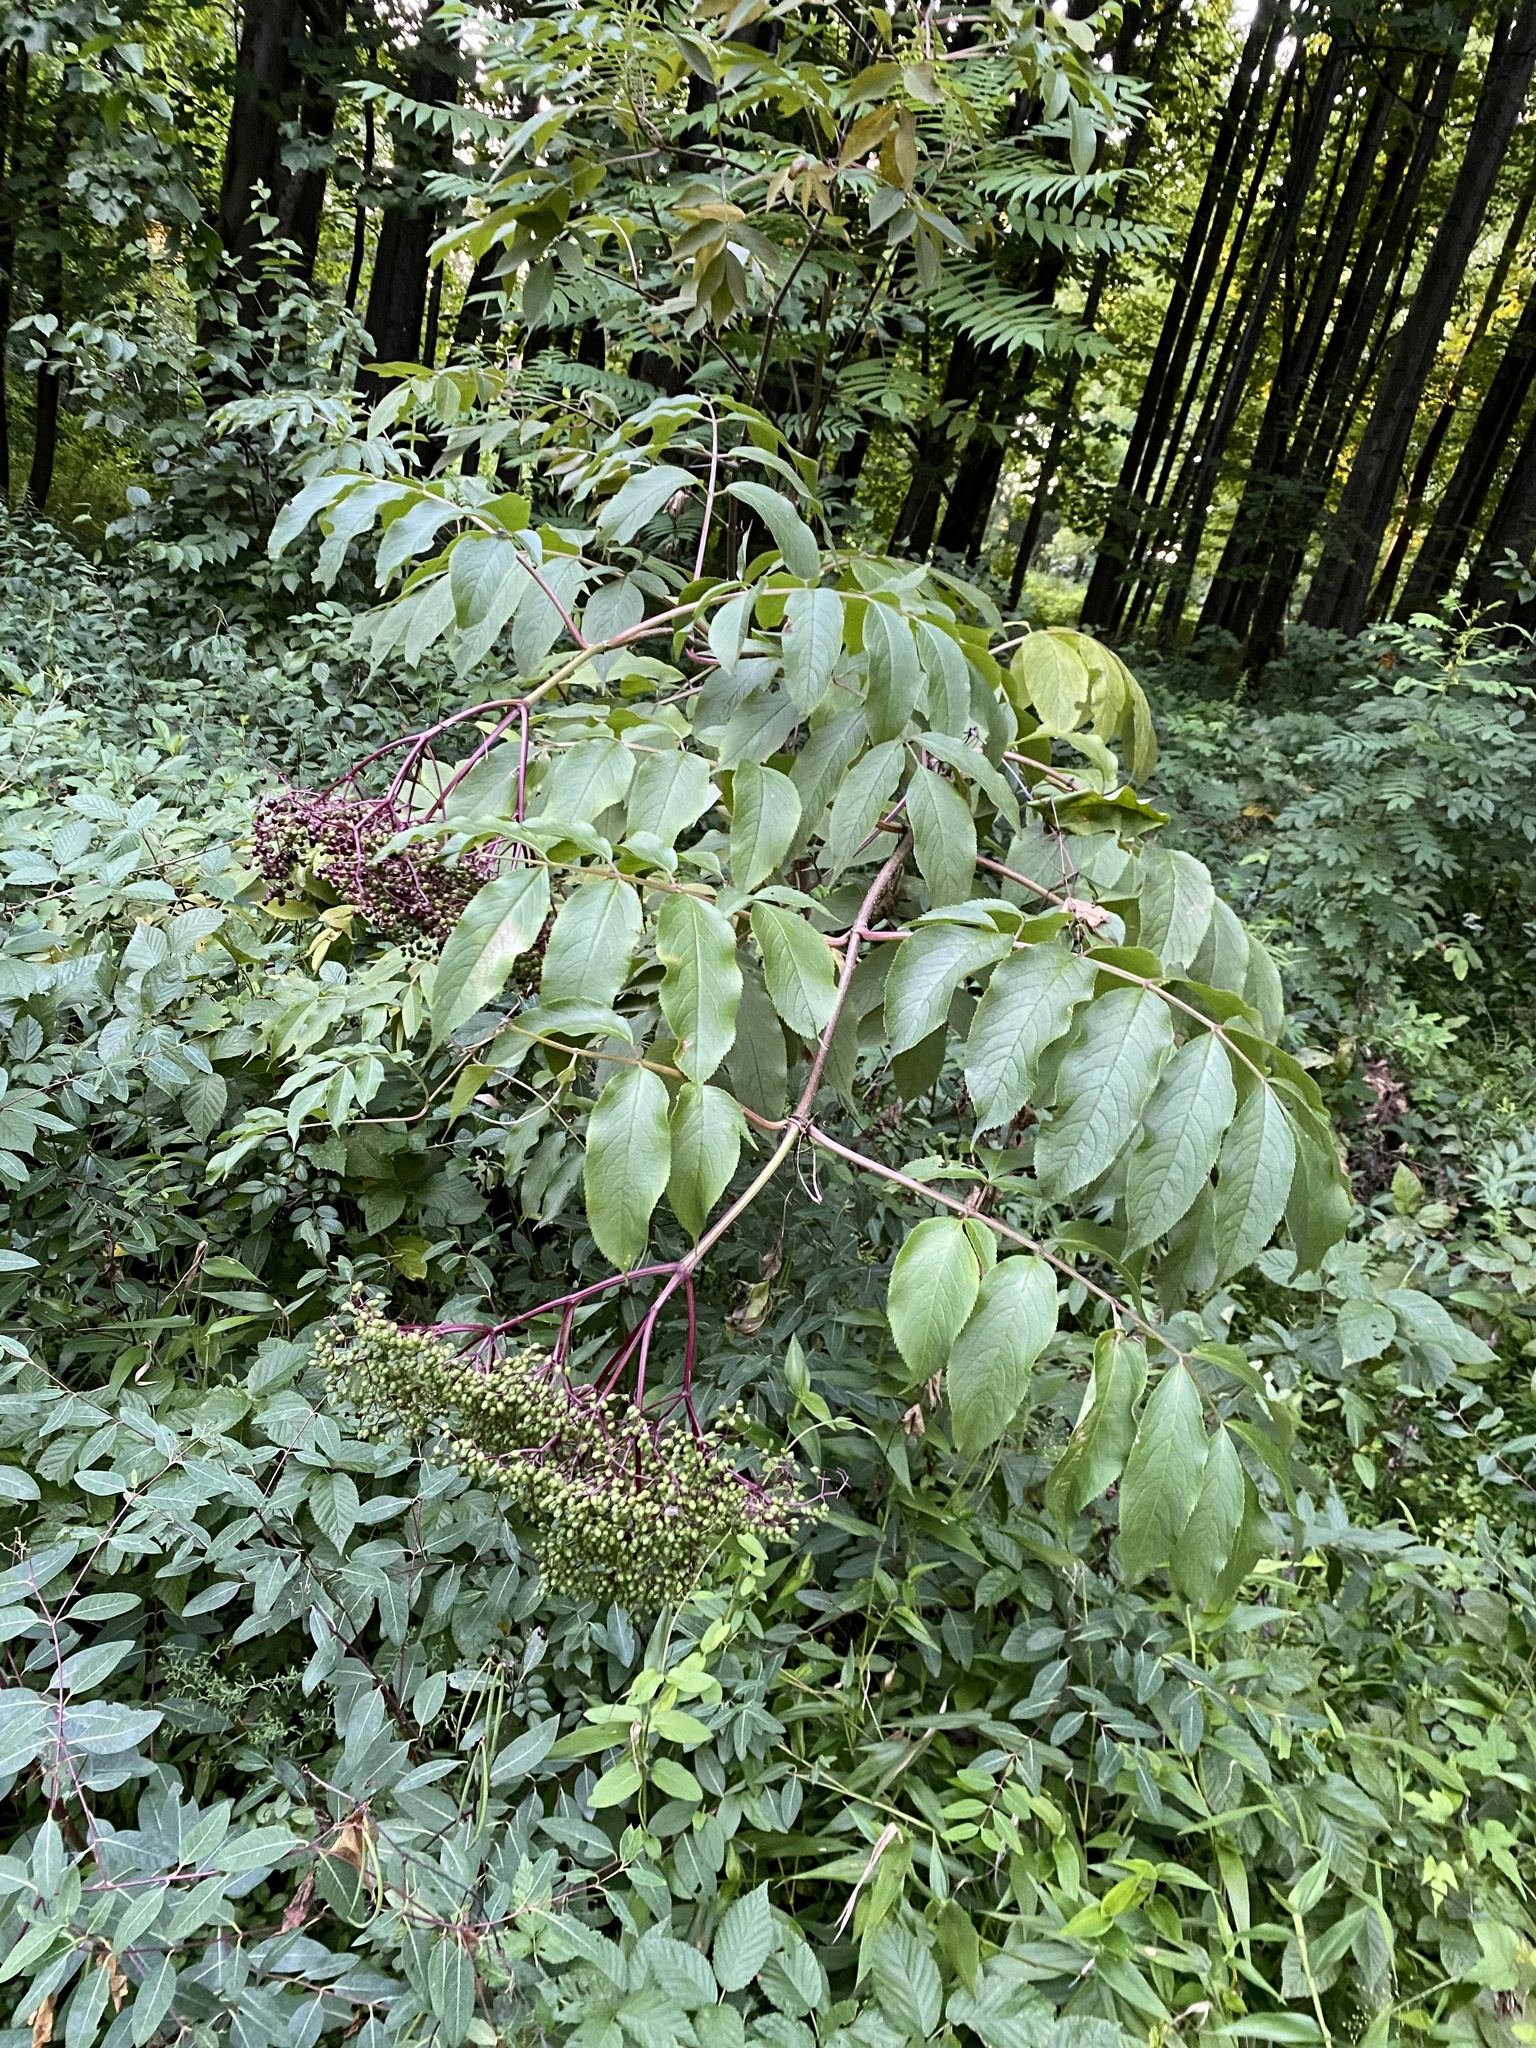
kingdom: Plantae
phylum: Tracheophyta
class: Magnoliopsida
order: Dipsacales
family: Viburnaceae
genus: Sambucus
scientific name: Sambucus canadensis
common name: American elder
